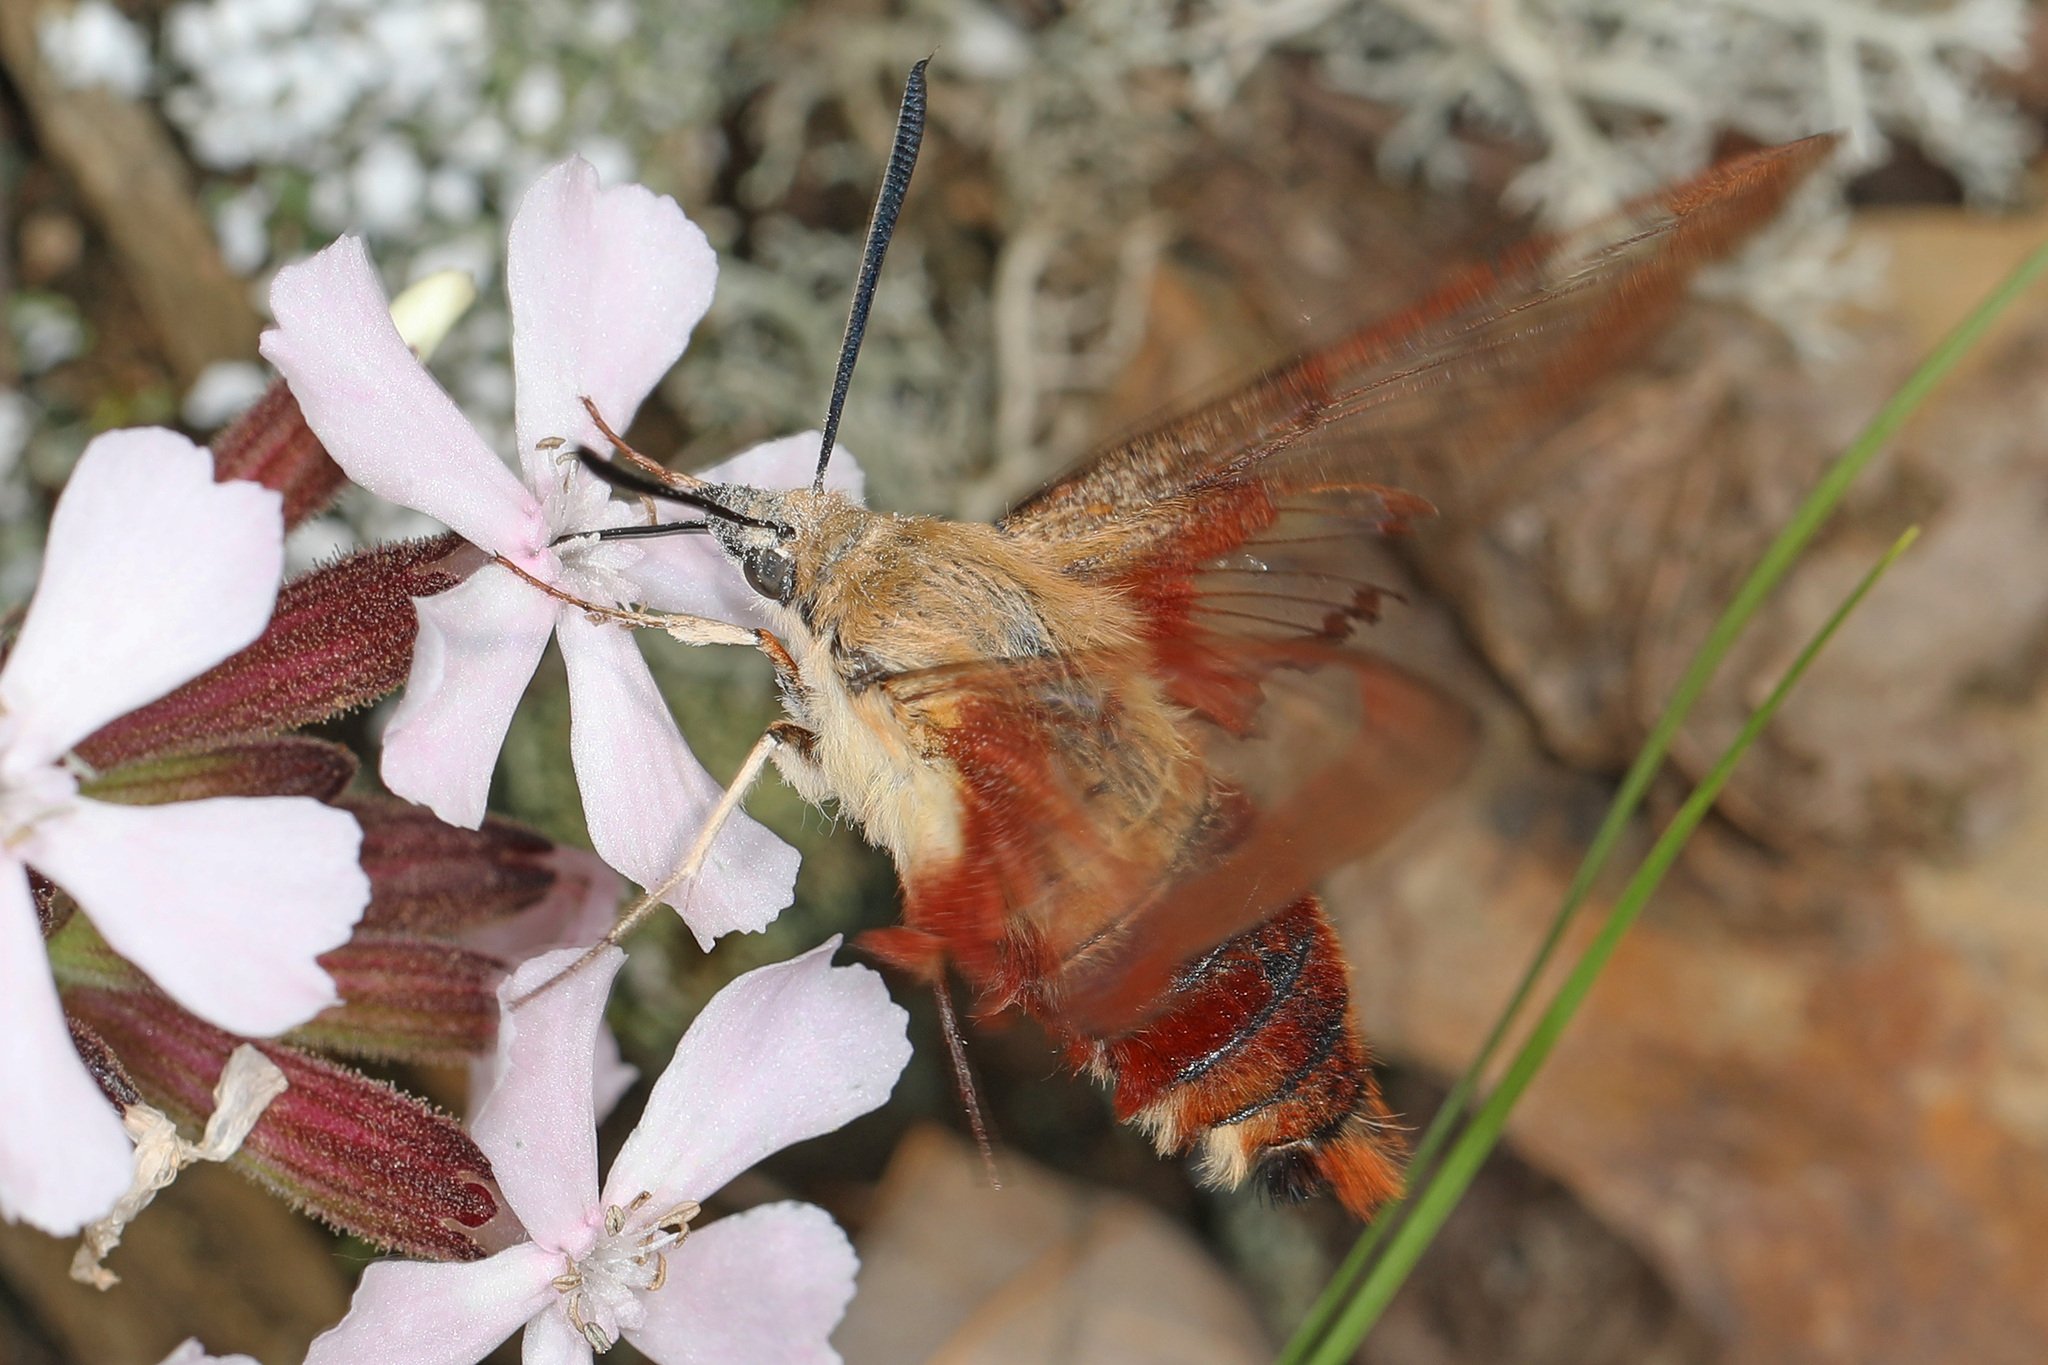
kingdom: Animalia
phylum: Arthropoda
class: Insecta
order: Lepidoptera
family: Sphingidae
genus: Hemaris
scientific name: Hemaris thysbe
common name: Common clear-wing
